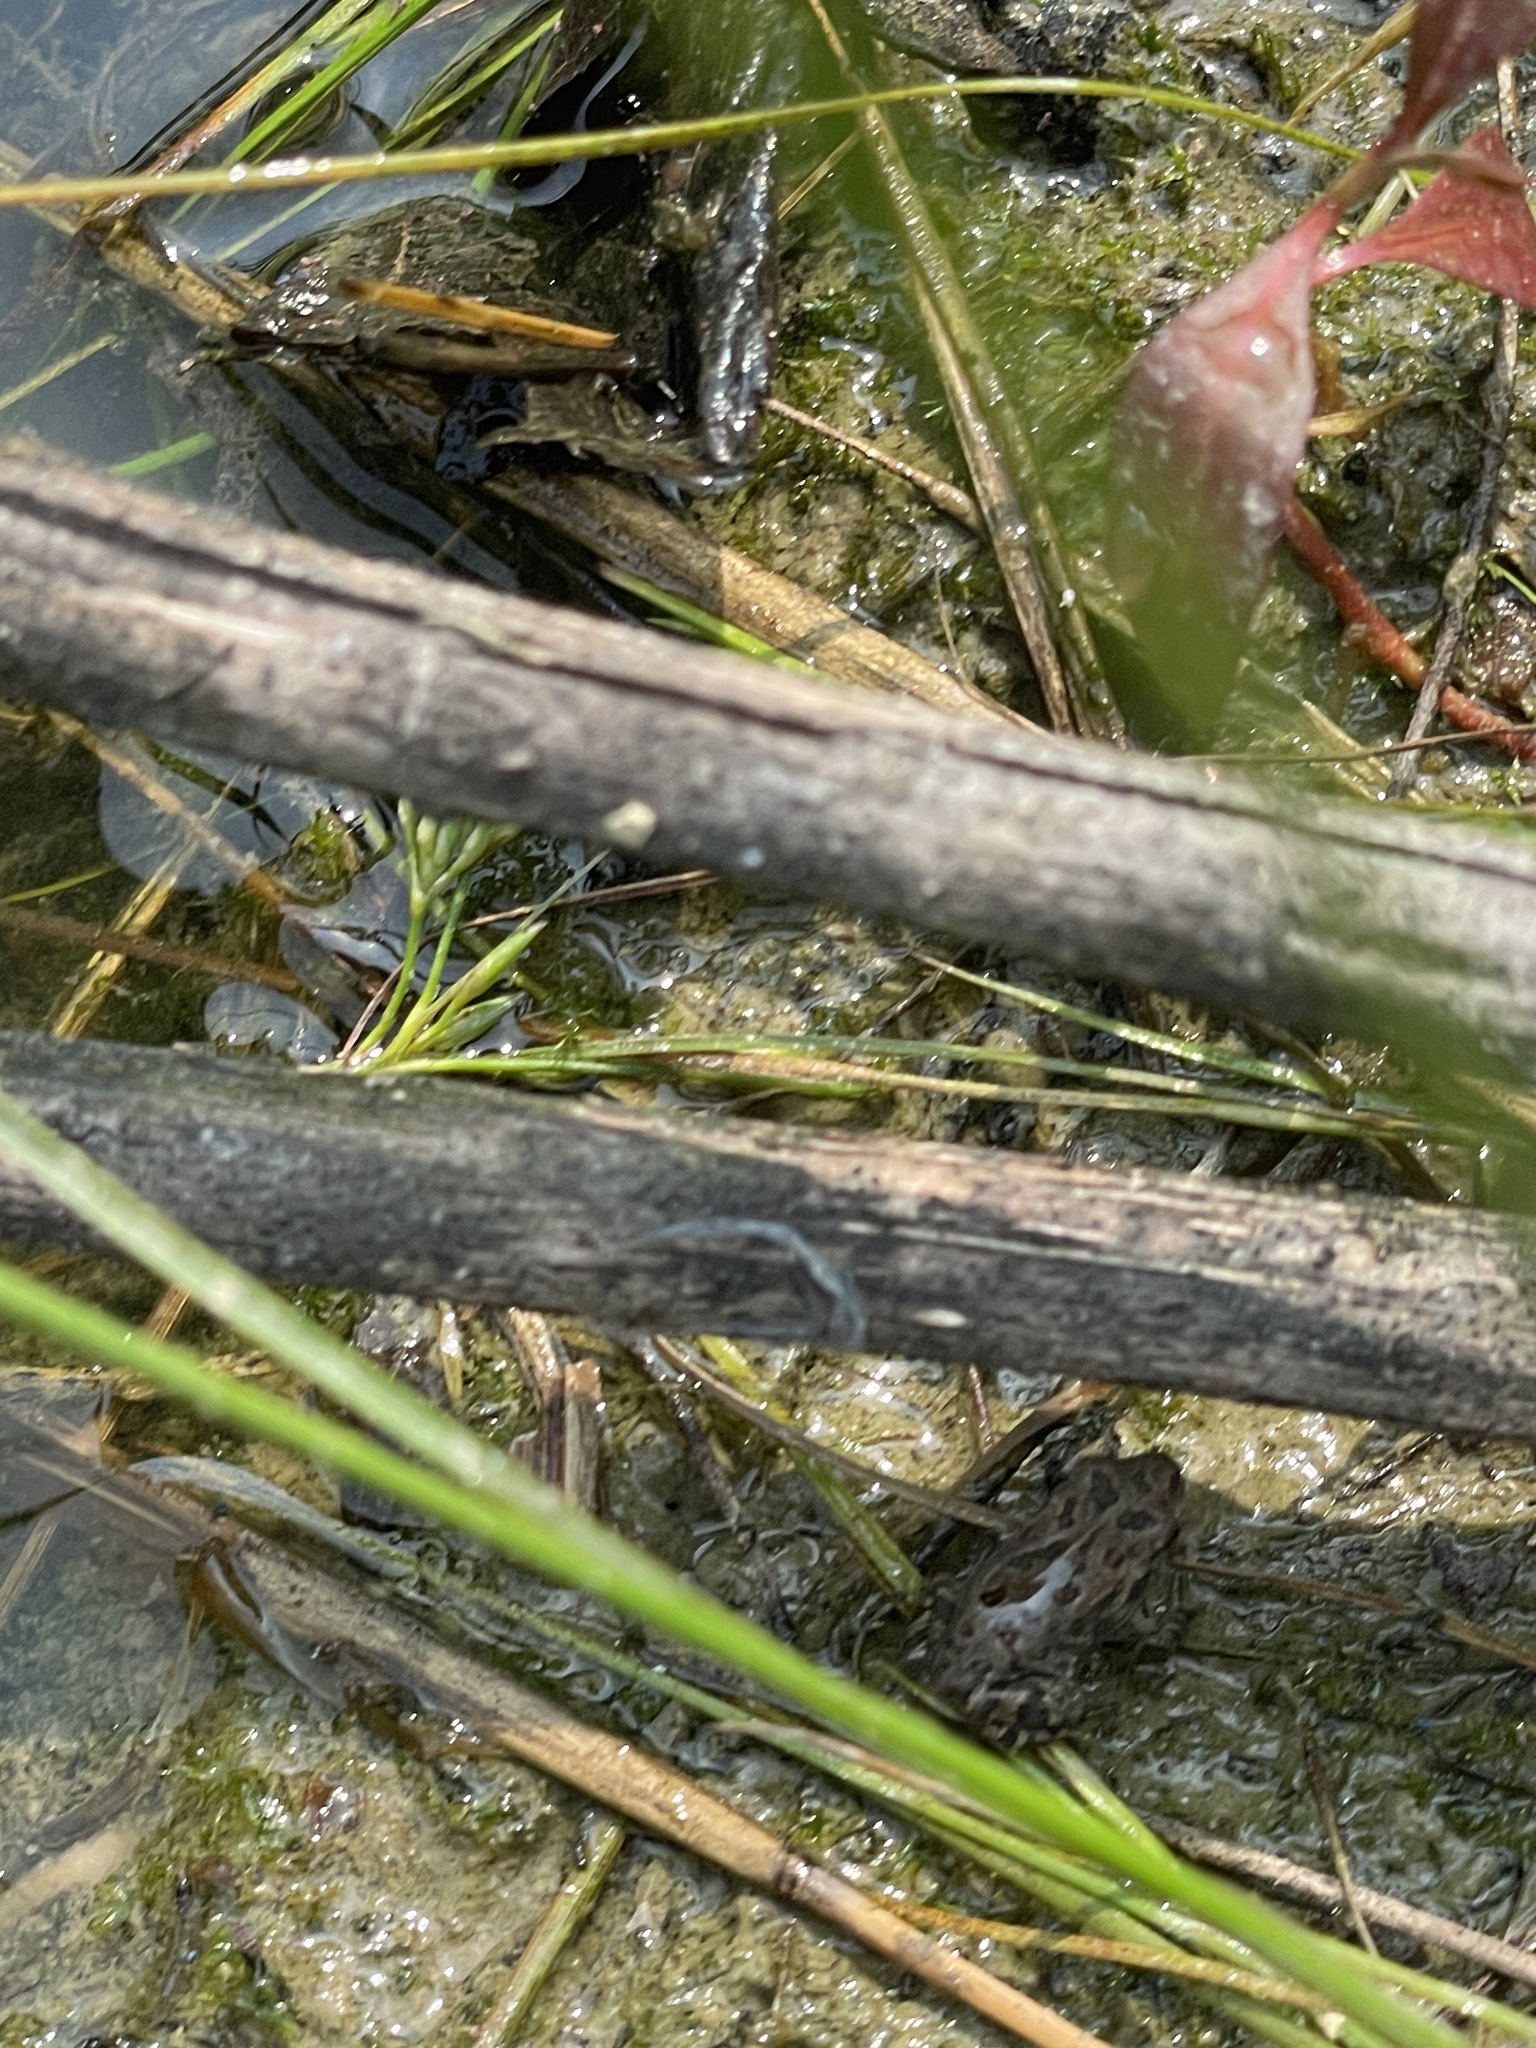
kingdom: Animalia
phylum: Chordata
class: Amphibia
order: Anura
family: Bufonidae
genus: Anaxyrus
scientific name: Anaxyrus fowleri
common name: Fowler's toad
